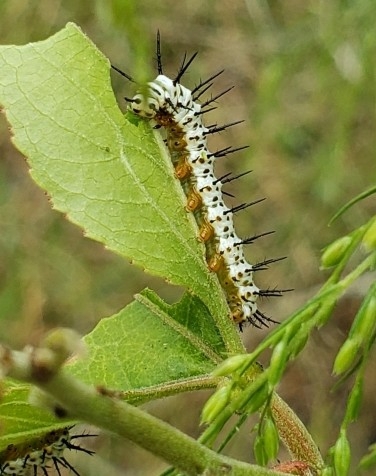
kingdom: Animalia
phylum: Arthropoda
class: Insecta
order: Lepidoptera
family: Nymphalidae
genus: Heliconius
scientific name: Heliconius charithonia
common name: Zebra long wing
